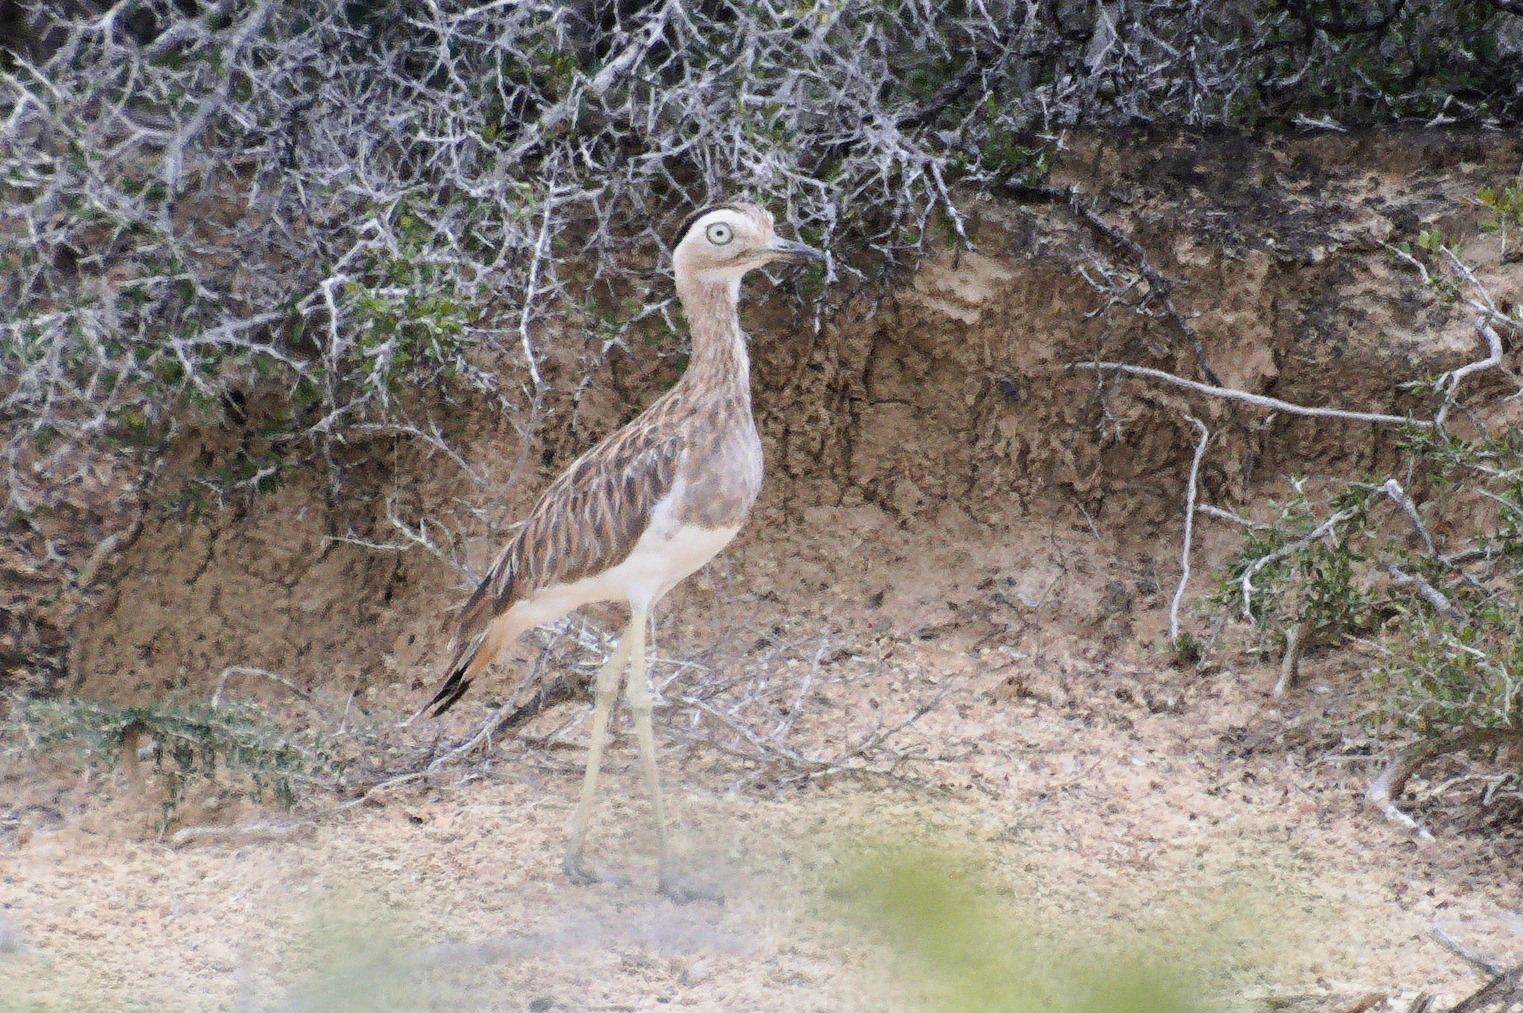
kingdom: Animalia
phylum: Chordata
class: Aves
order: Charadriiformes
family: Burhinidae
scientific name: Burhinidae
